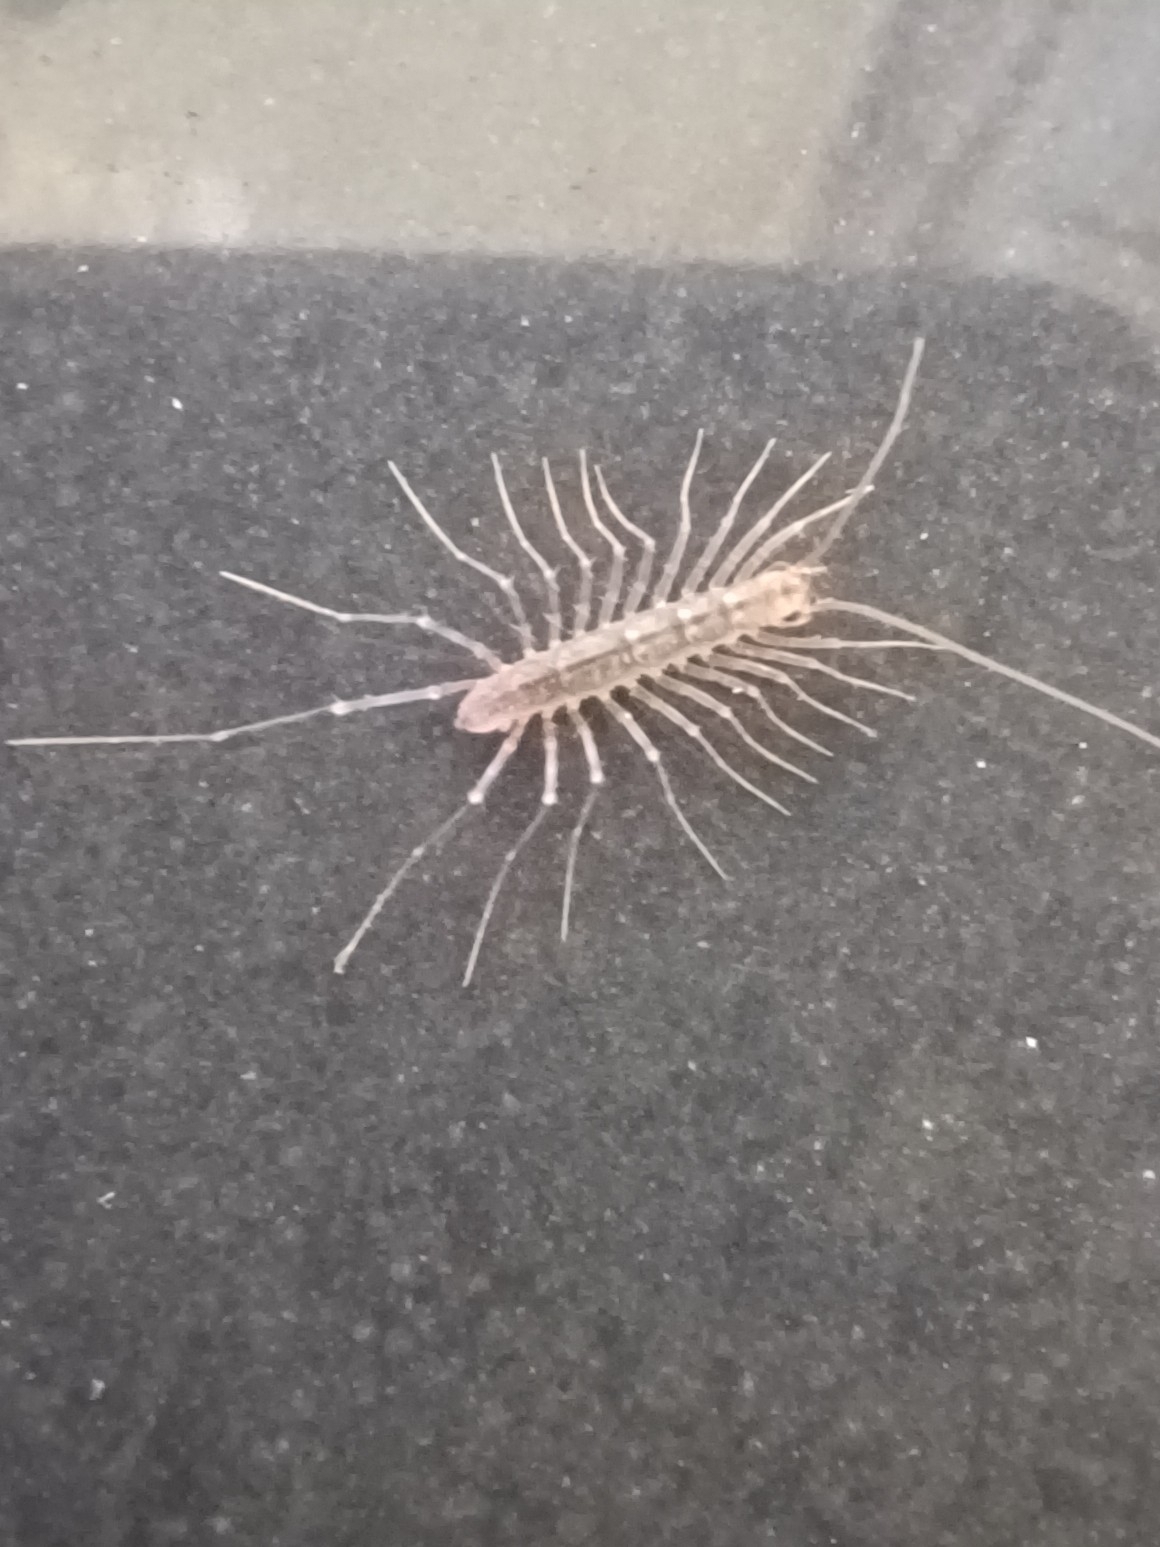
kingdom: Animalia
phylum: Arthropoda
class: Chilopoda
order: Scutigeromorpha
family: Scutigeridae
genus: Scutigera
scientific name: Scutigera coleoptrata
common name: House centipede
